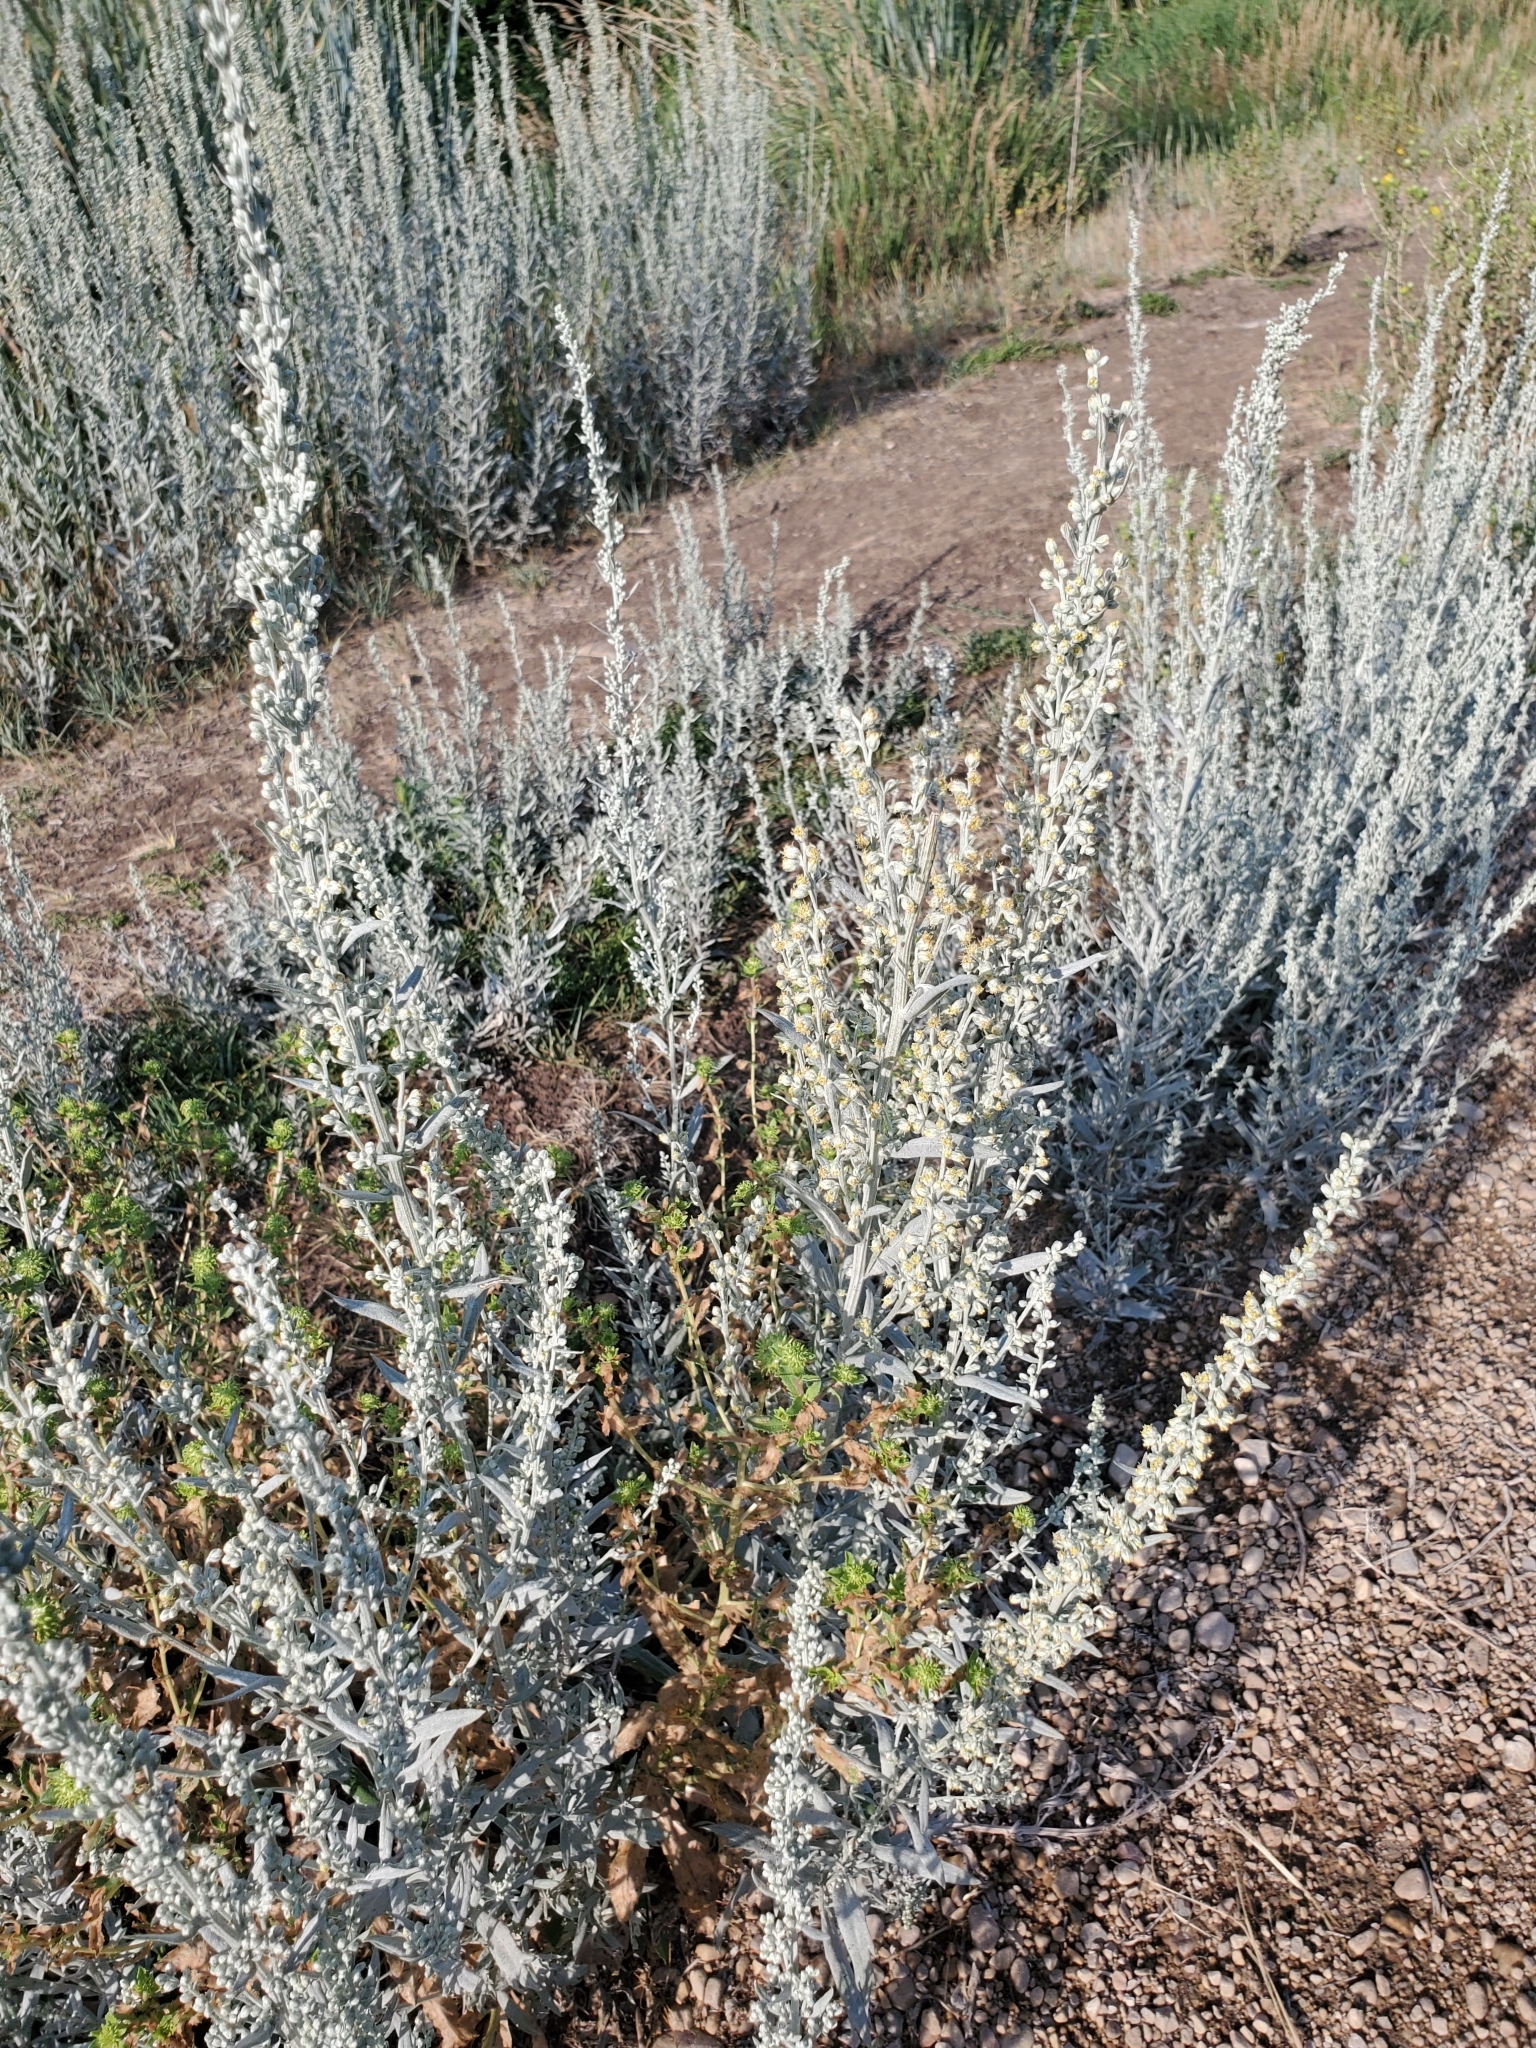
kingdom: Plantae
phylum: Tracheophyta
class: Magnoliopsida
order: Asterales
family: Asteraceae
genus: Artemisia
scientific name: Artemisia cana
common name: Silver sagebrush
